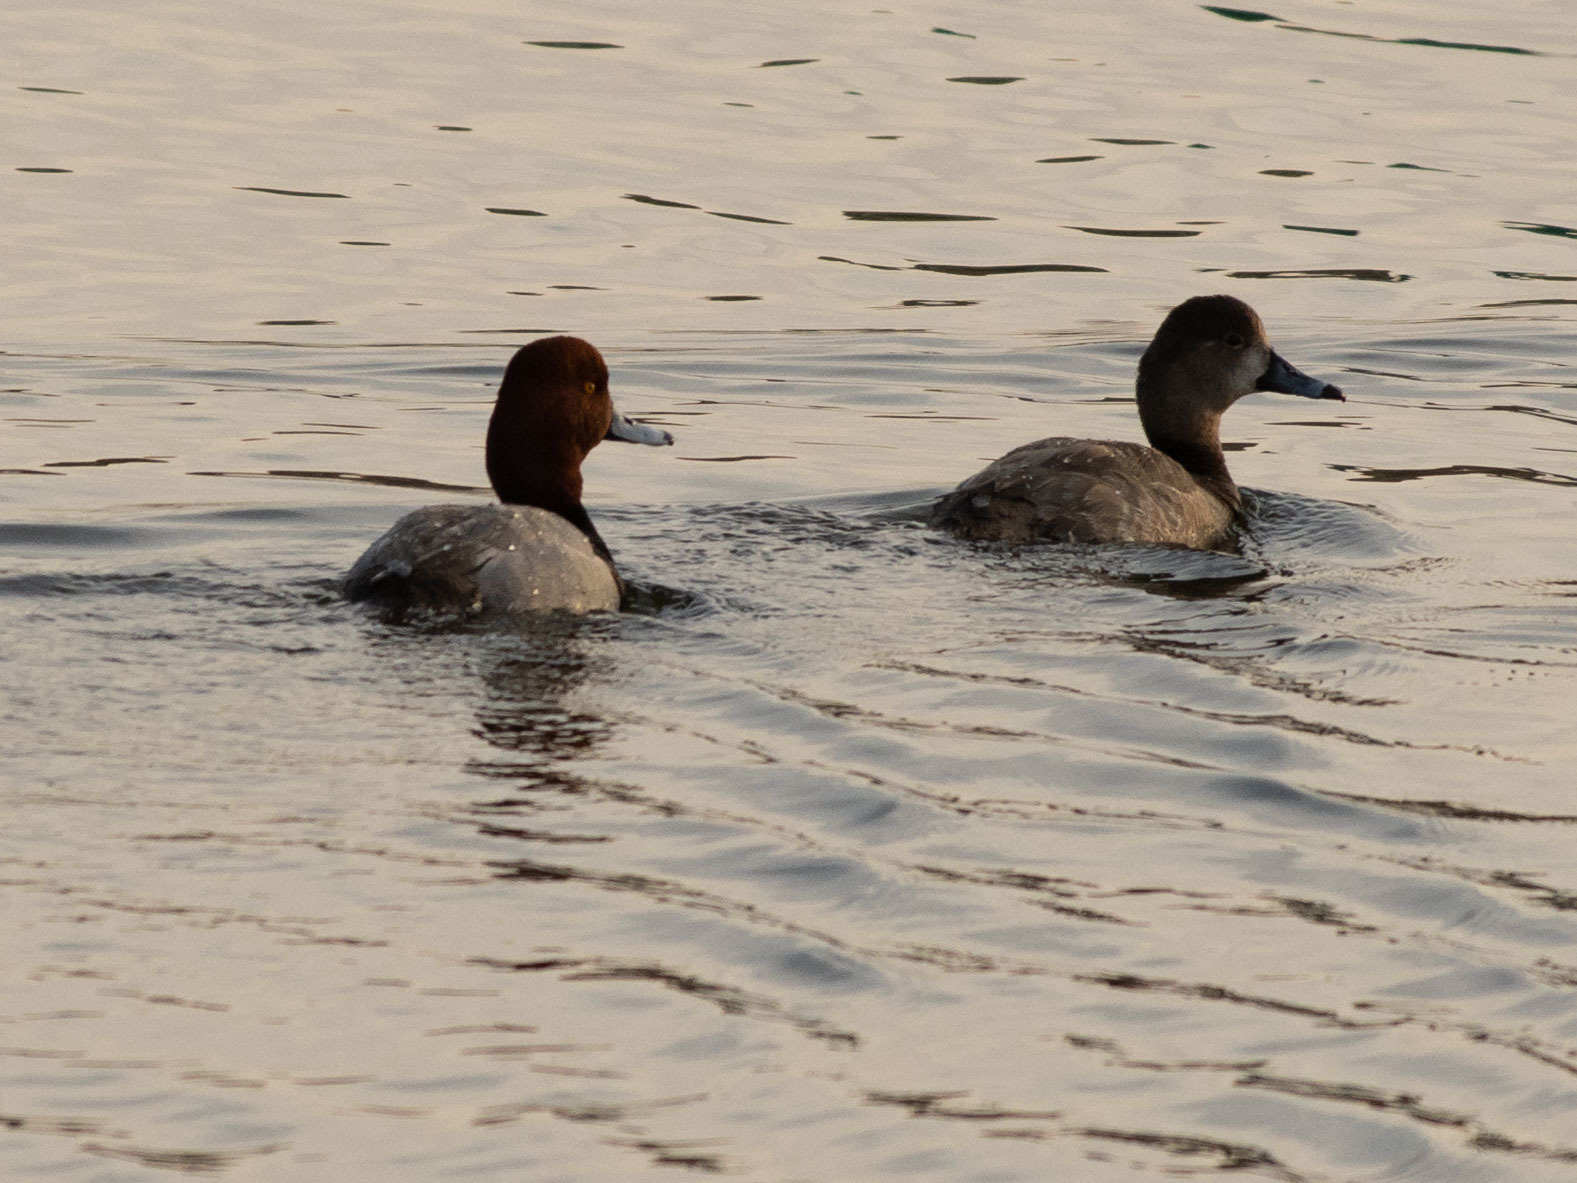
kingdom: Animalia
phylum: Chordata
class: Aves
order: Anseriformes
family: Anatidae
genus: Aythya
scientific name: Aythya americana
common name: Redhead
